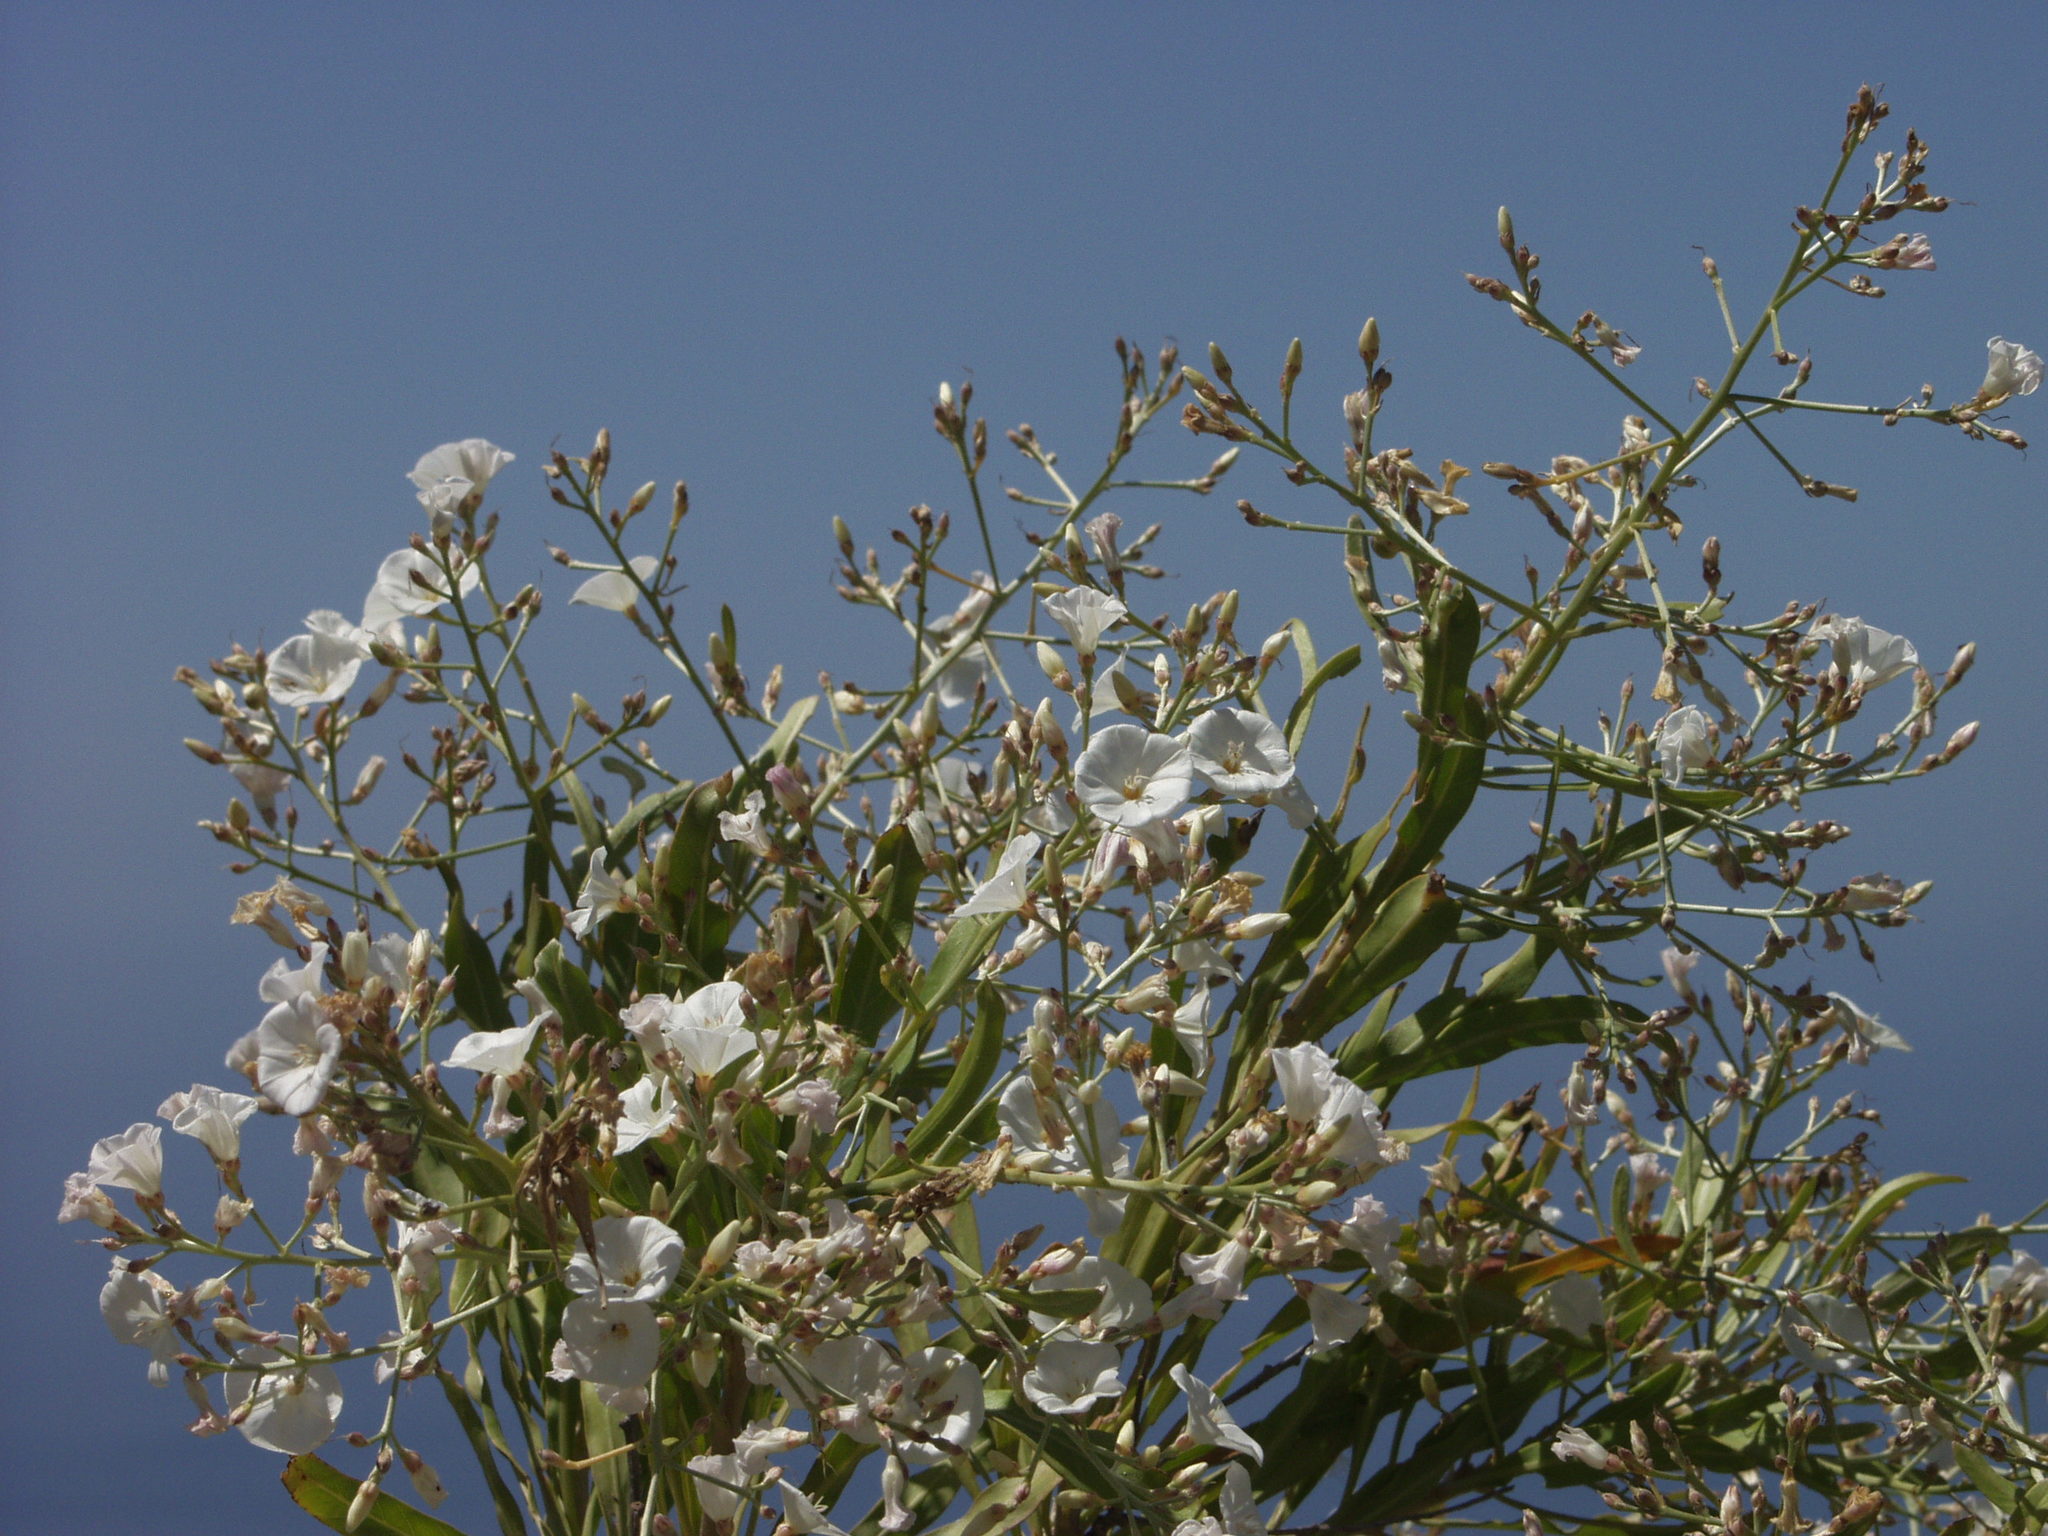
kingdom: Plantae
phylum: Tracheophyta
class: Magnoliopsida
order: Solanales
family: Convolvulaceae
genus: Convolvulus
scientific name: Convolvulus floridus
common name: Guadil
